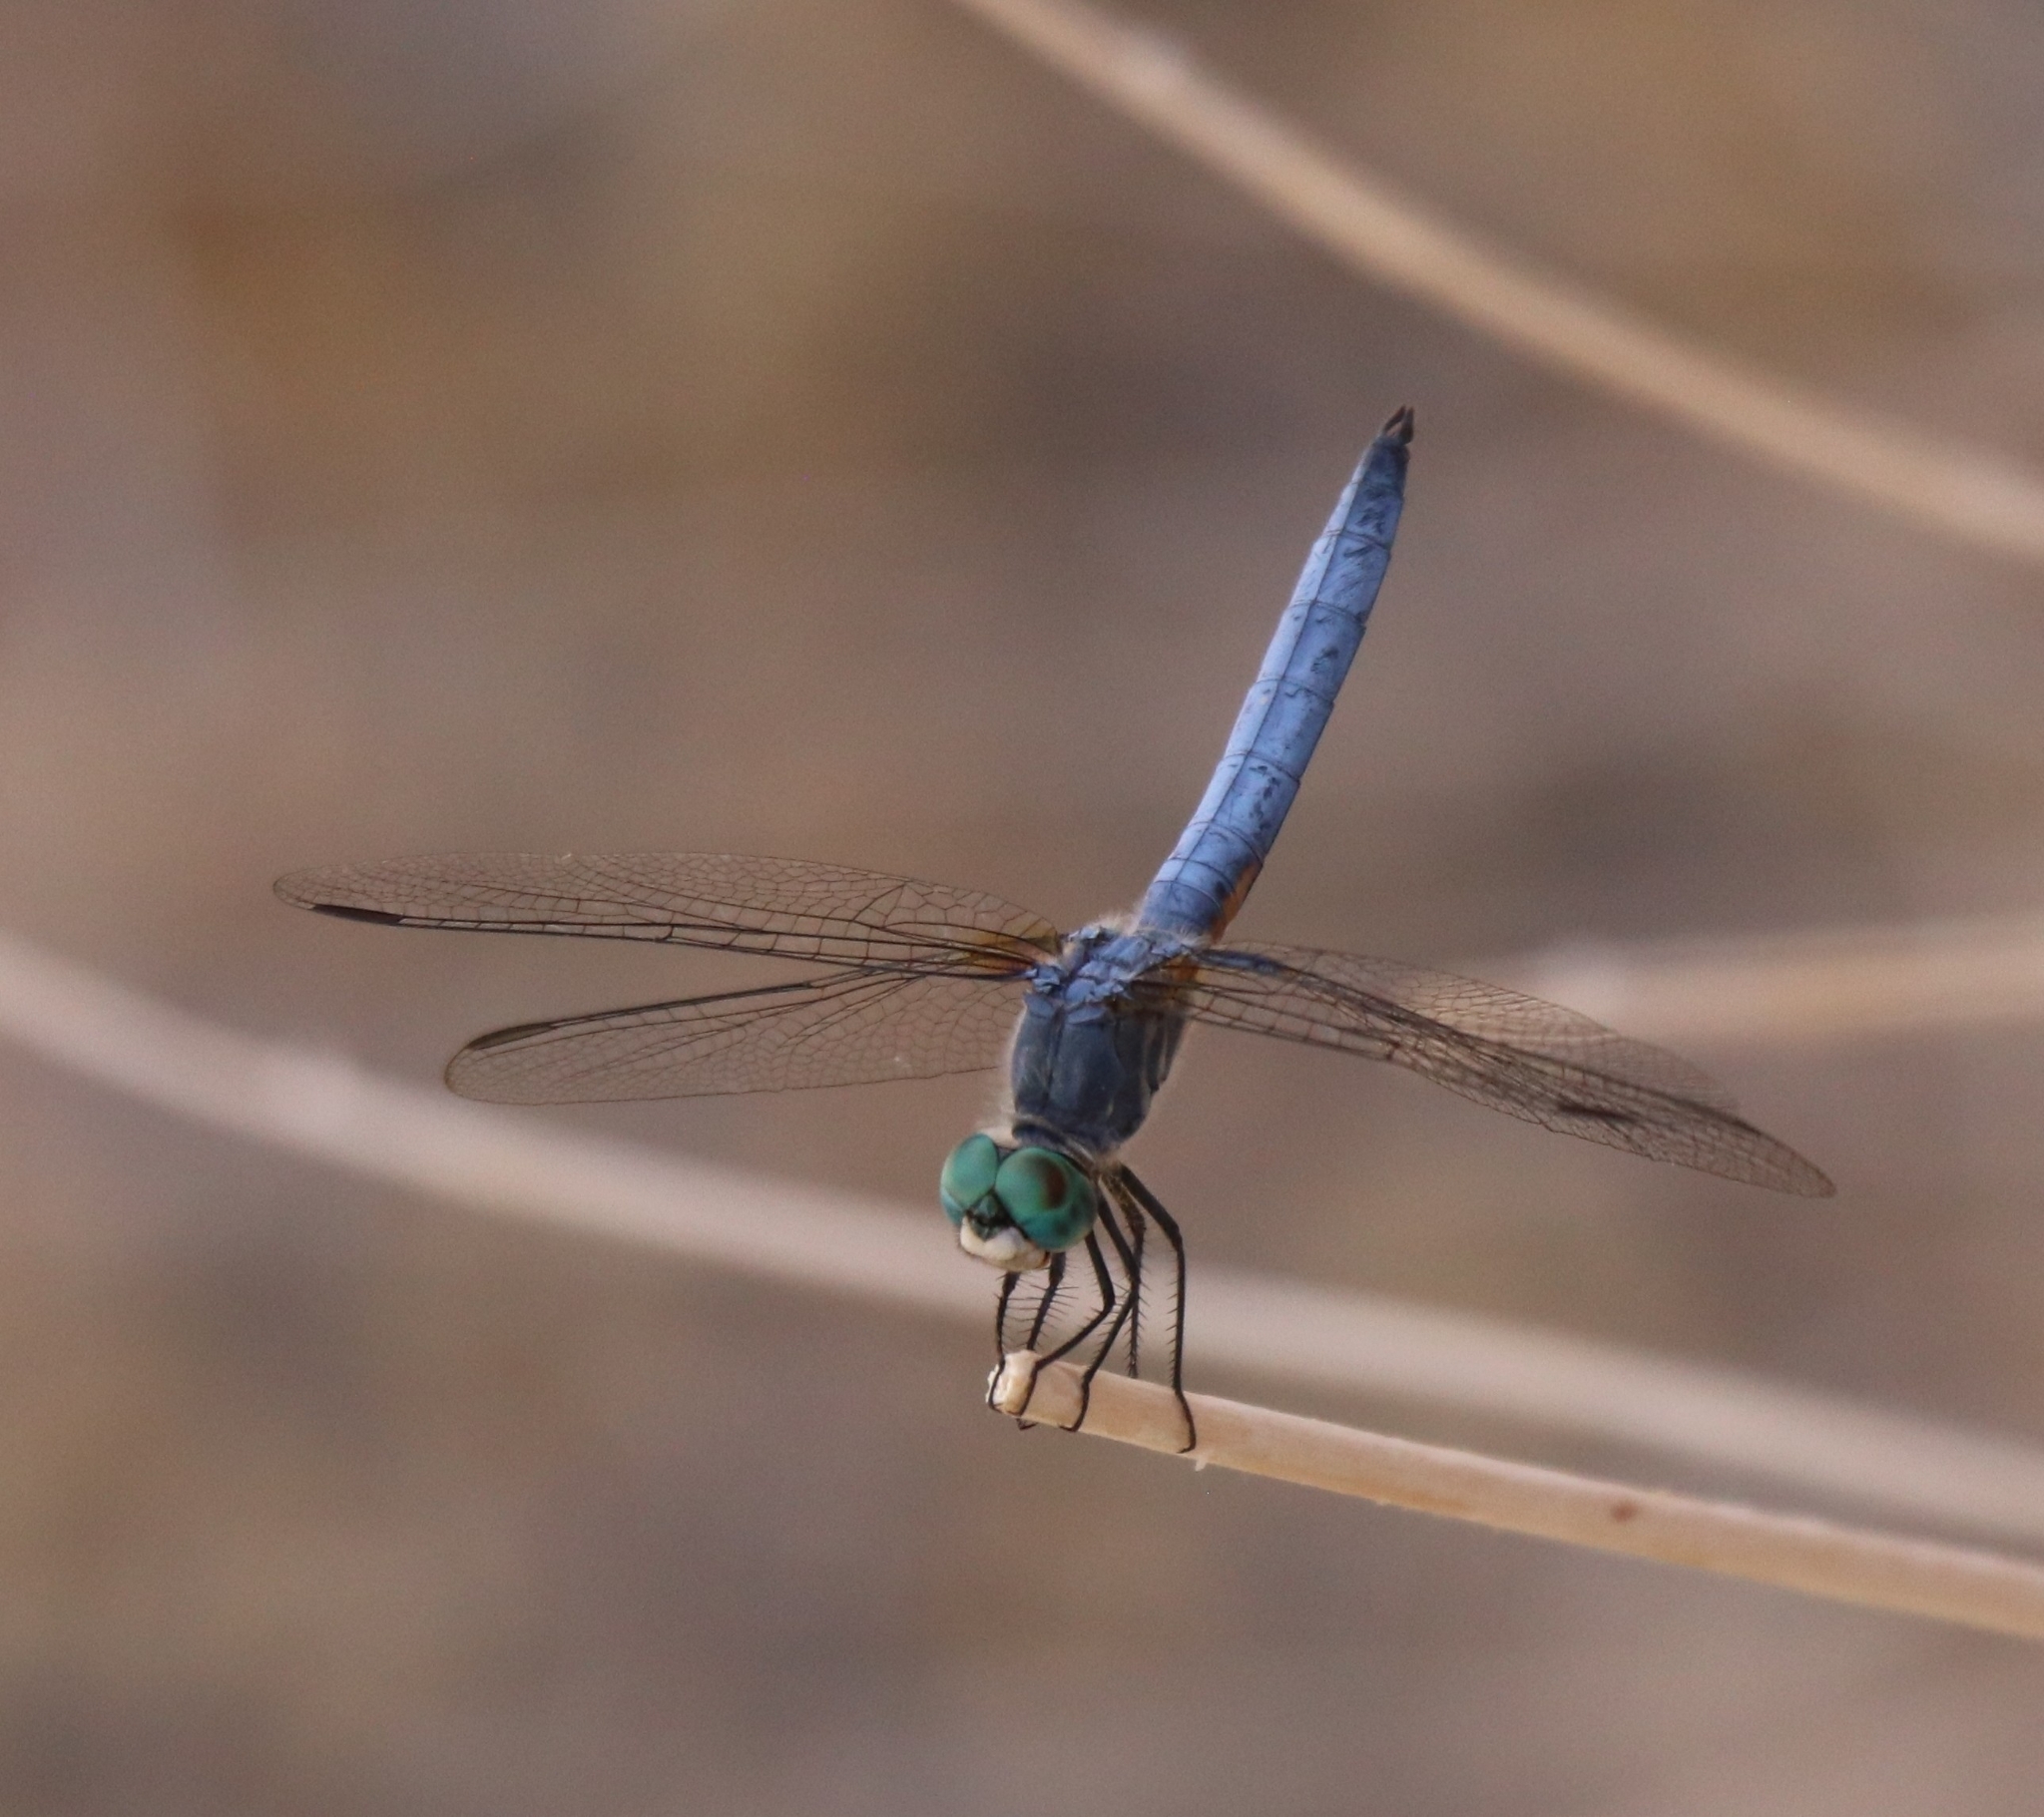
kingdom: Animalia
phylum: Arthropoda
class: Insecta
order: Odonata
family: Libellulidae
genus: Pachydiplax
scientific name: Pachydiplax longipennis
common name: Blue dasher
